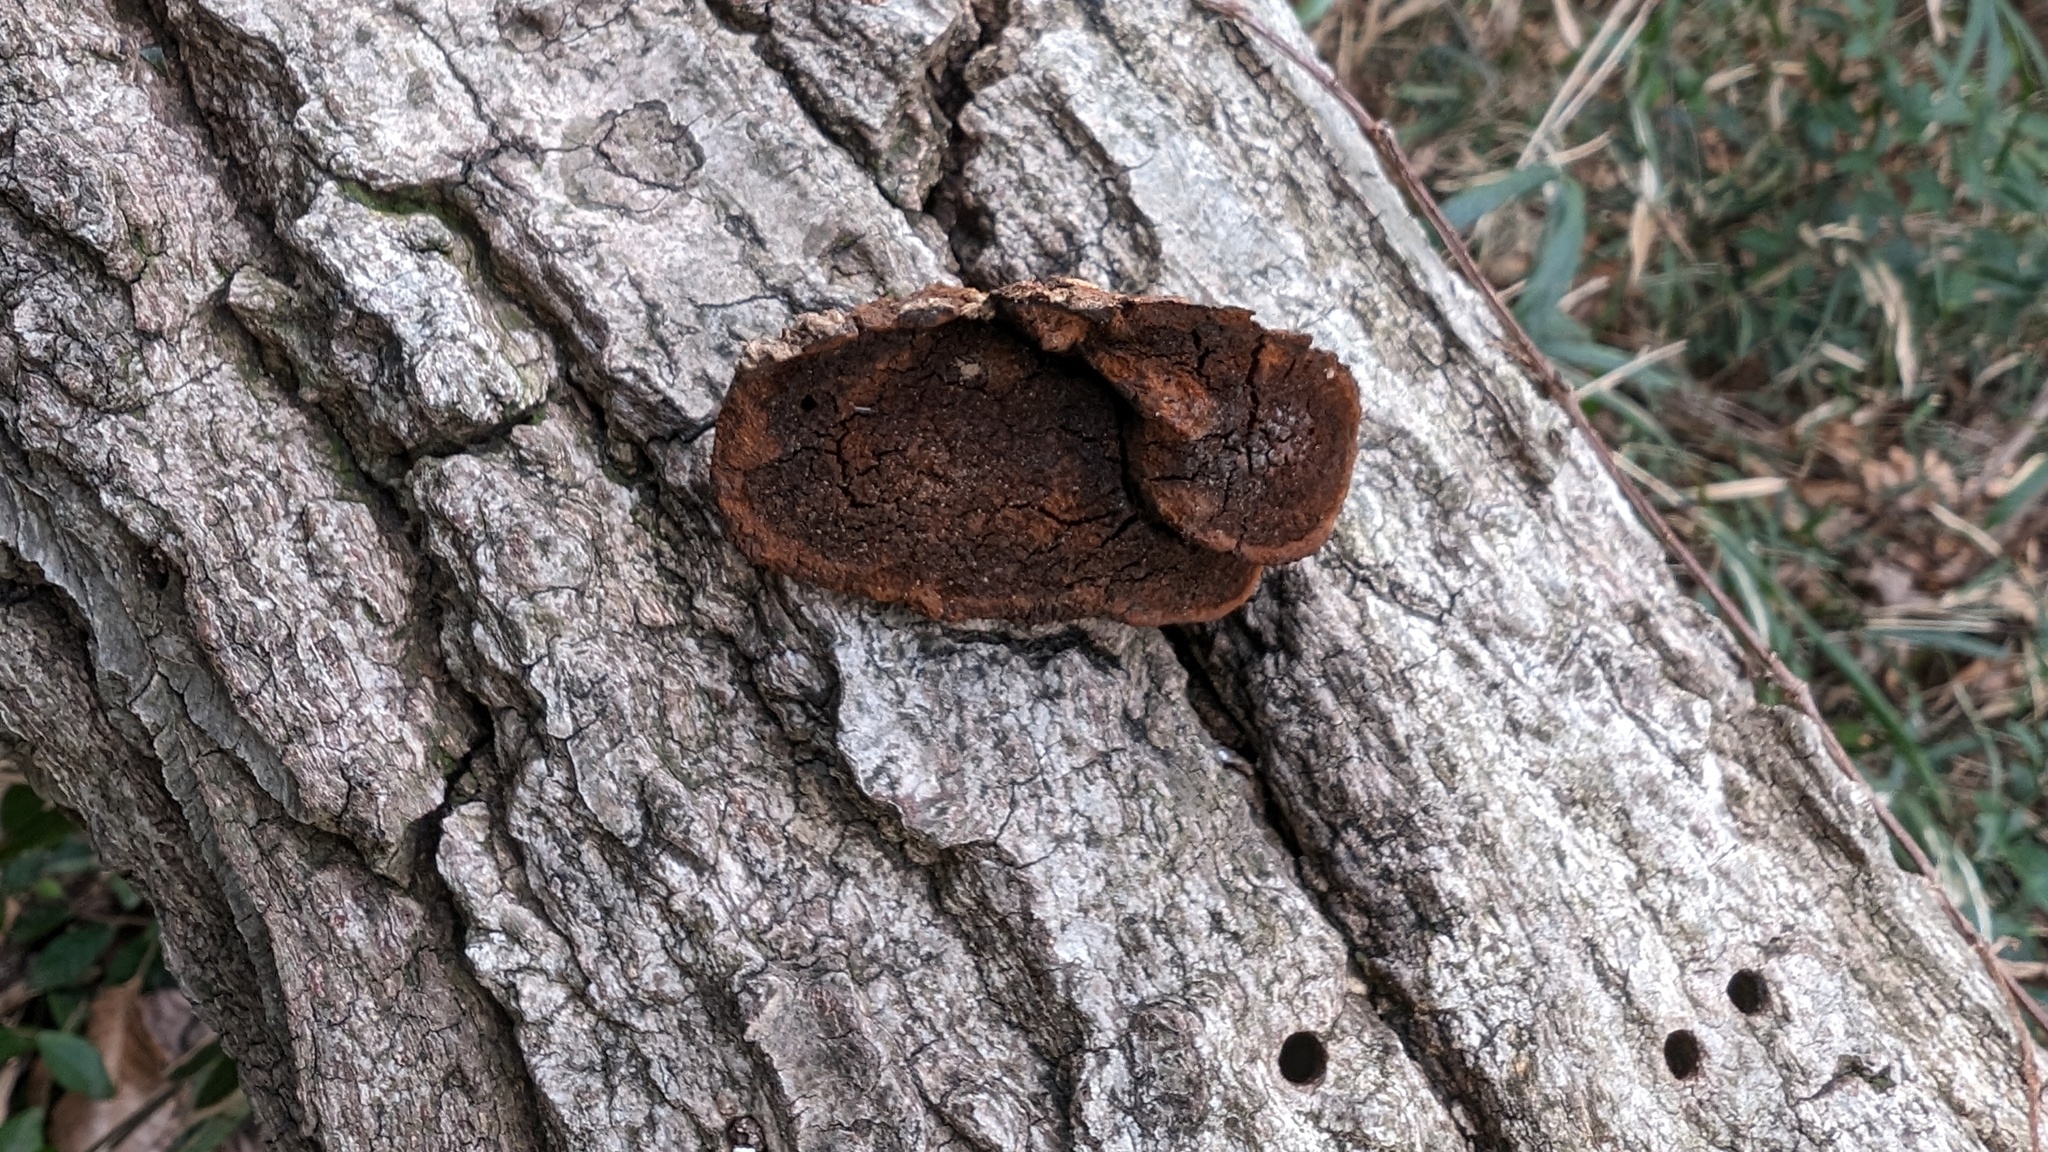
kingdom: Fungi
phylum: Basidiomycota
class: Agaricomycetes
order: Hymenochaetales
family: Hymenochaetaceae
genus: Phellinus
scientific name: Phellinus gilvus
